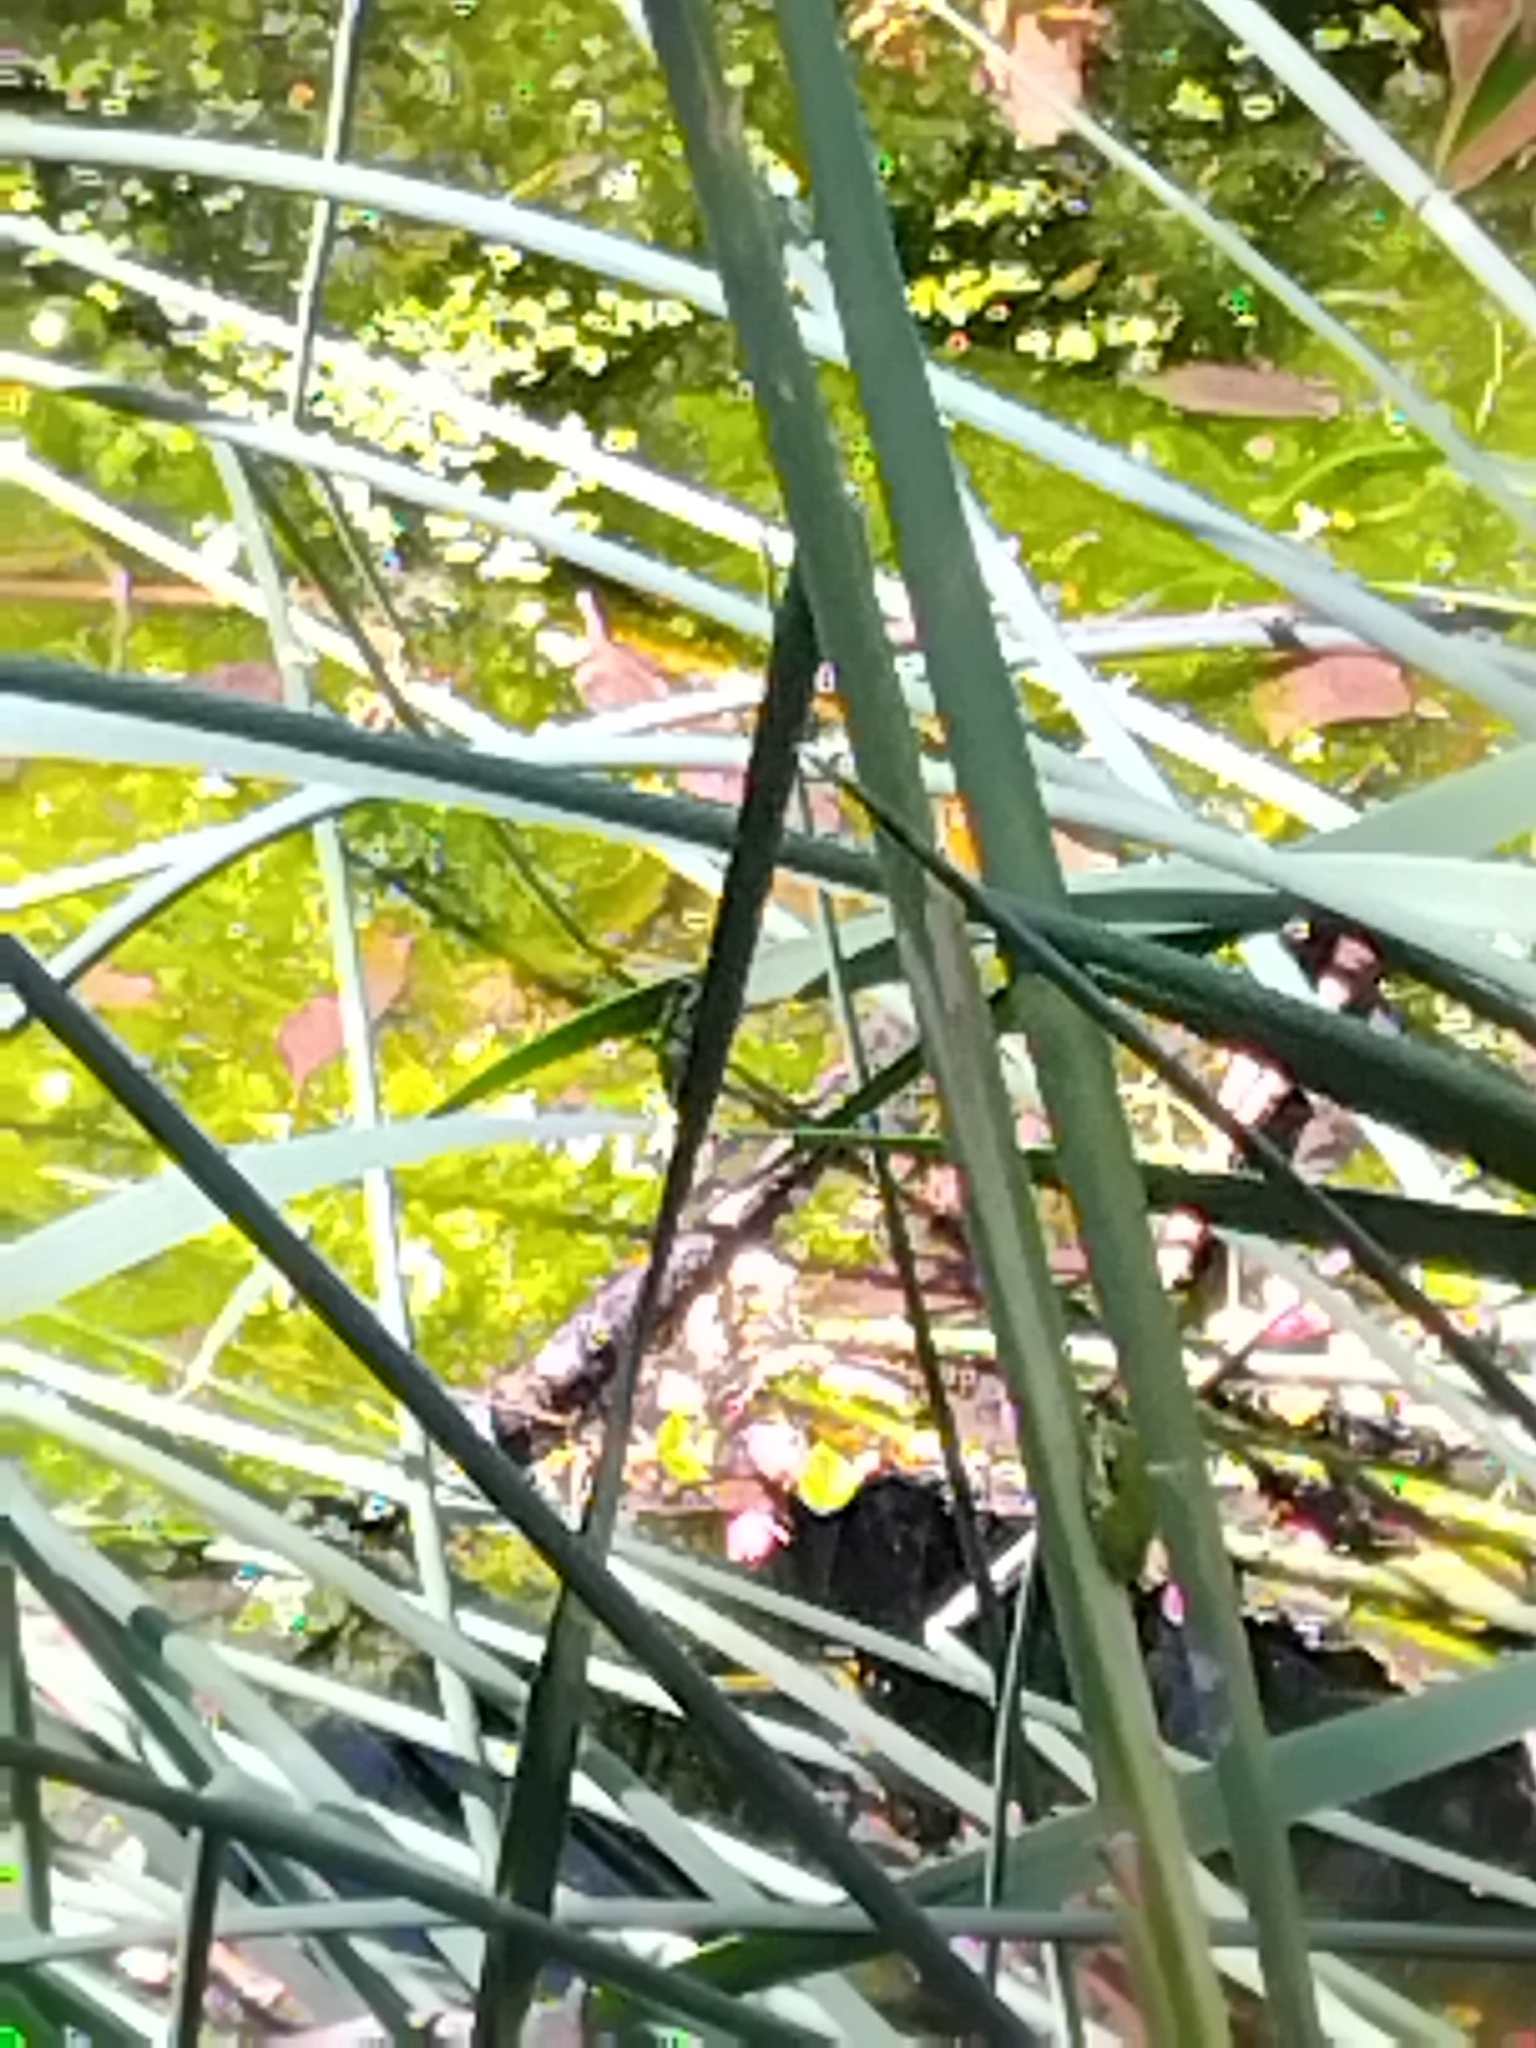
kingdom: Animalia
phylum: Chordata
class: Amphibia
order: Anura
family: Pelodryadidae
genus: Litoria
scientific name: Litoria fallax
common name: Eastern dwarf treefrog
